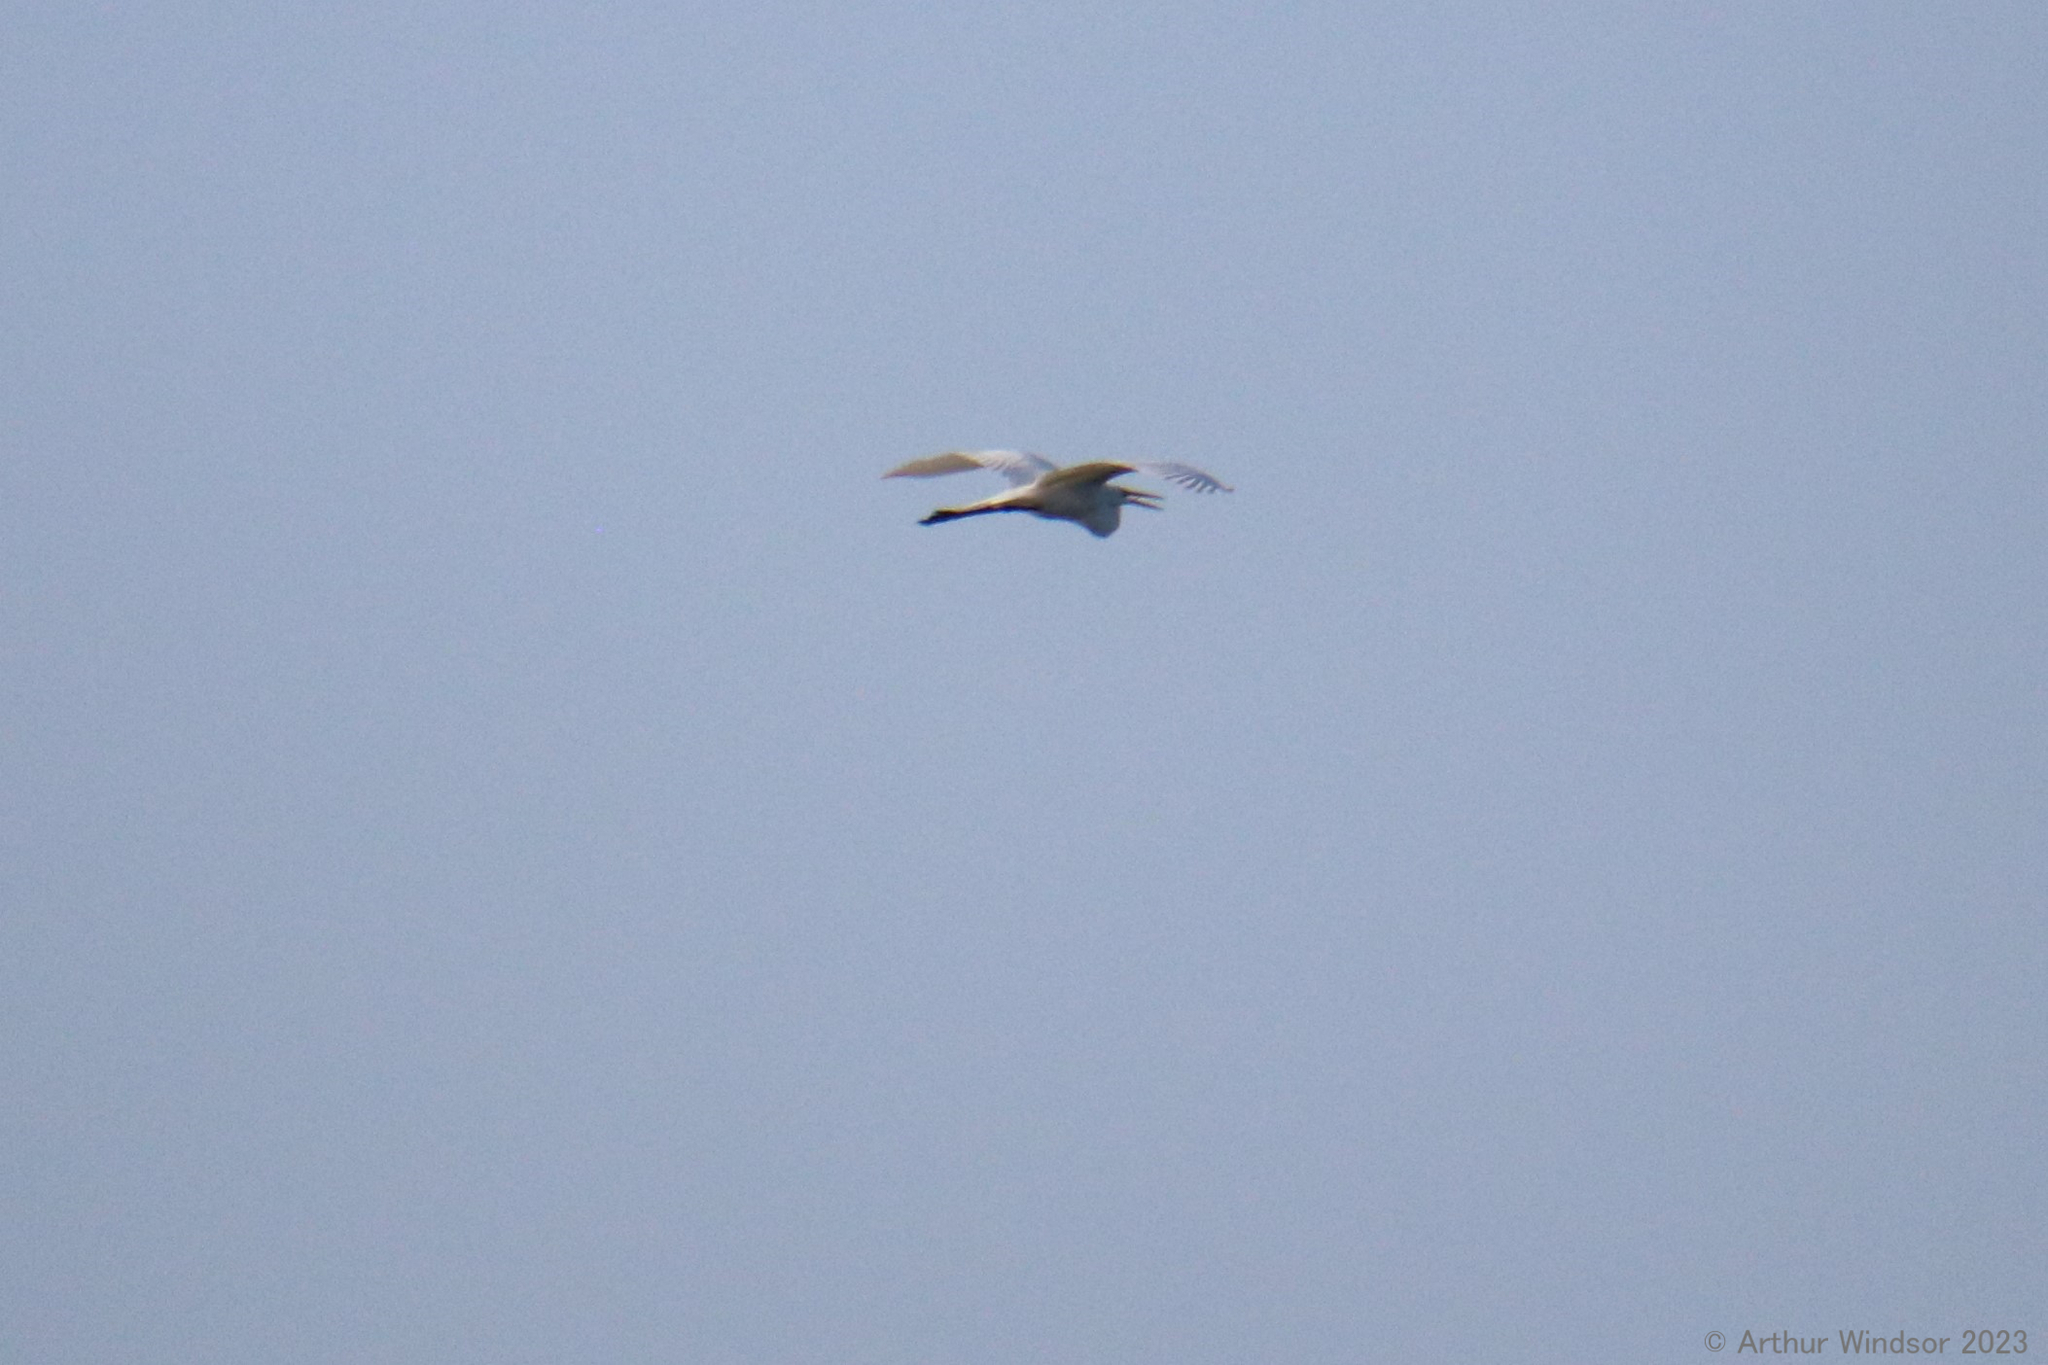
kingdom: Animalia
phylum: Chordata
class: Aves
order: Pelecaniformes
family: Ardeidae
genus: Ardea
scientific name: Ardea alba
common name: Great egret
